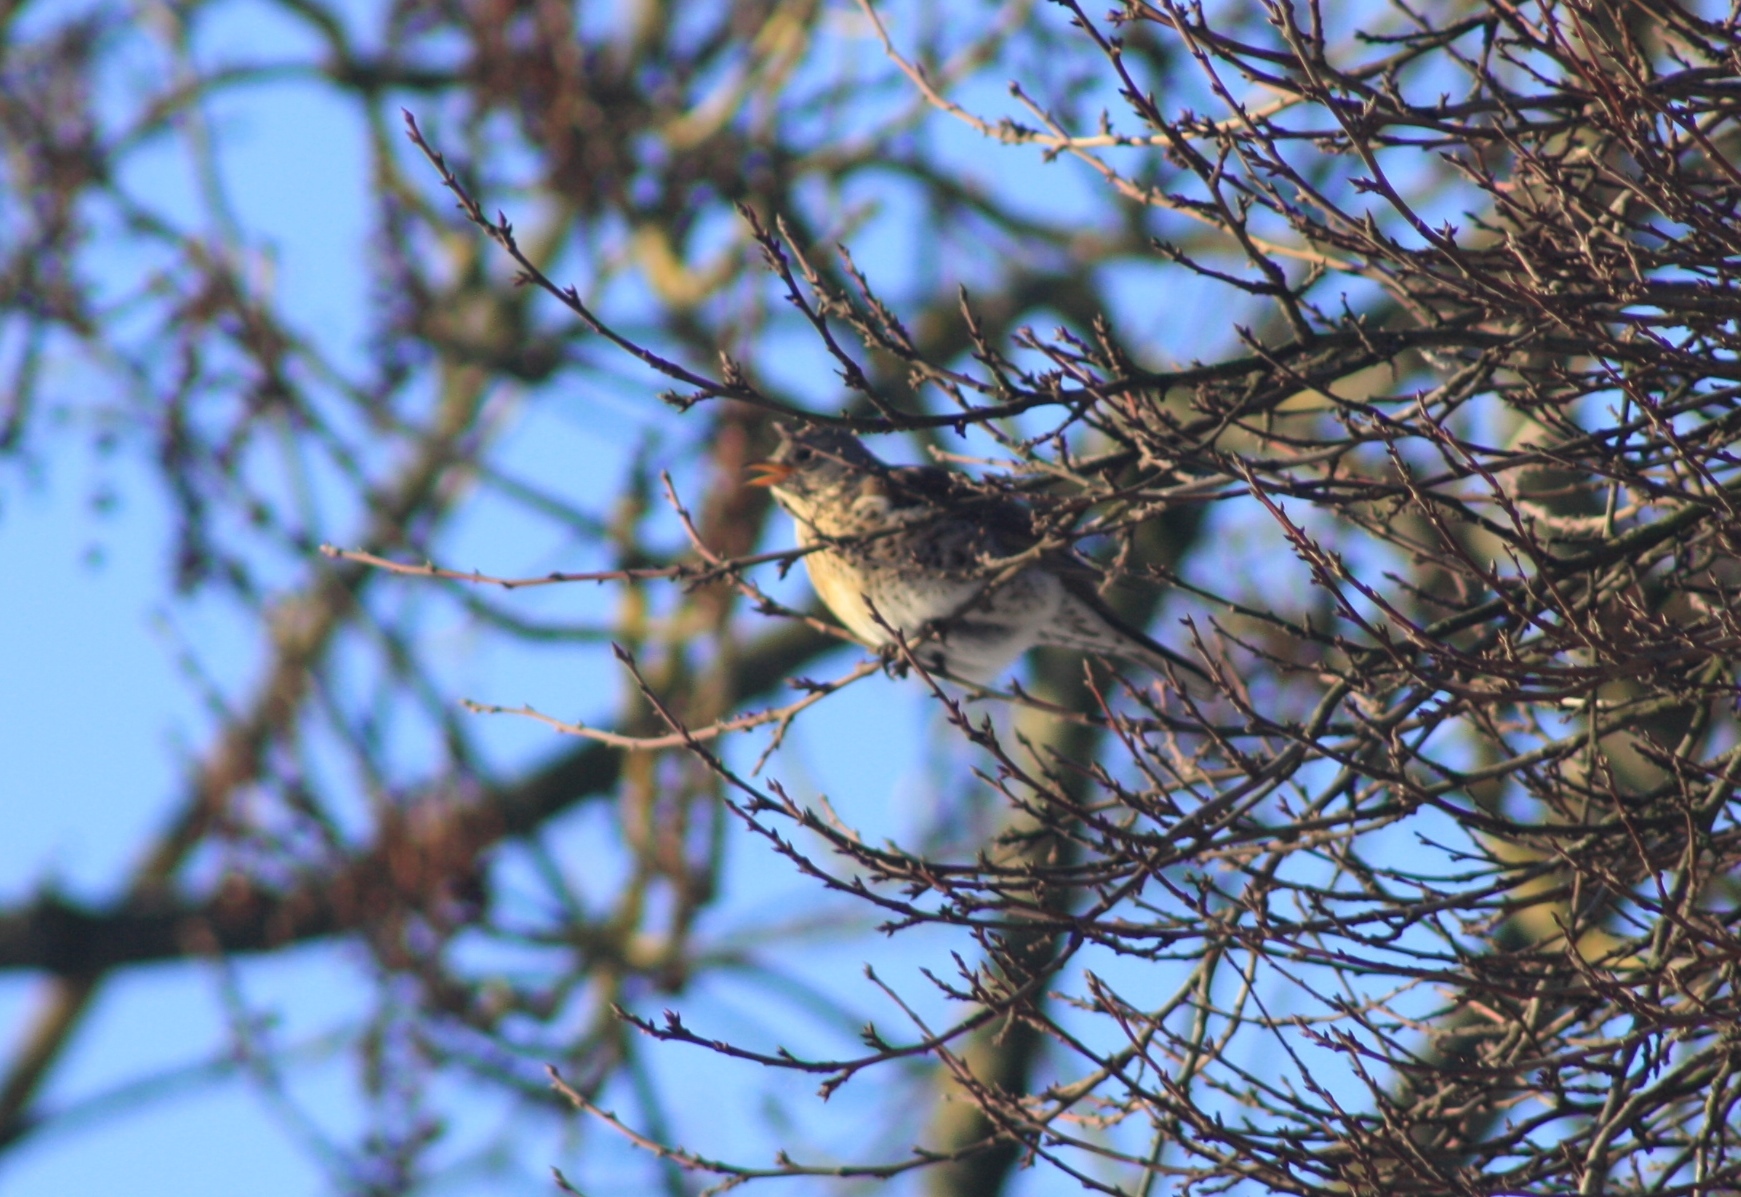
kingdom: Animalia
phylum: Chordata
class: Aves
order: Passeriformes
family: Turdidae
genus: Turdus
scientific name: Turdus pilaris
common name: Fieldfare
